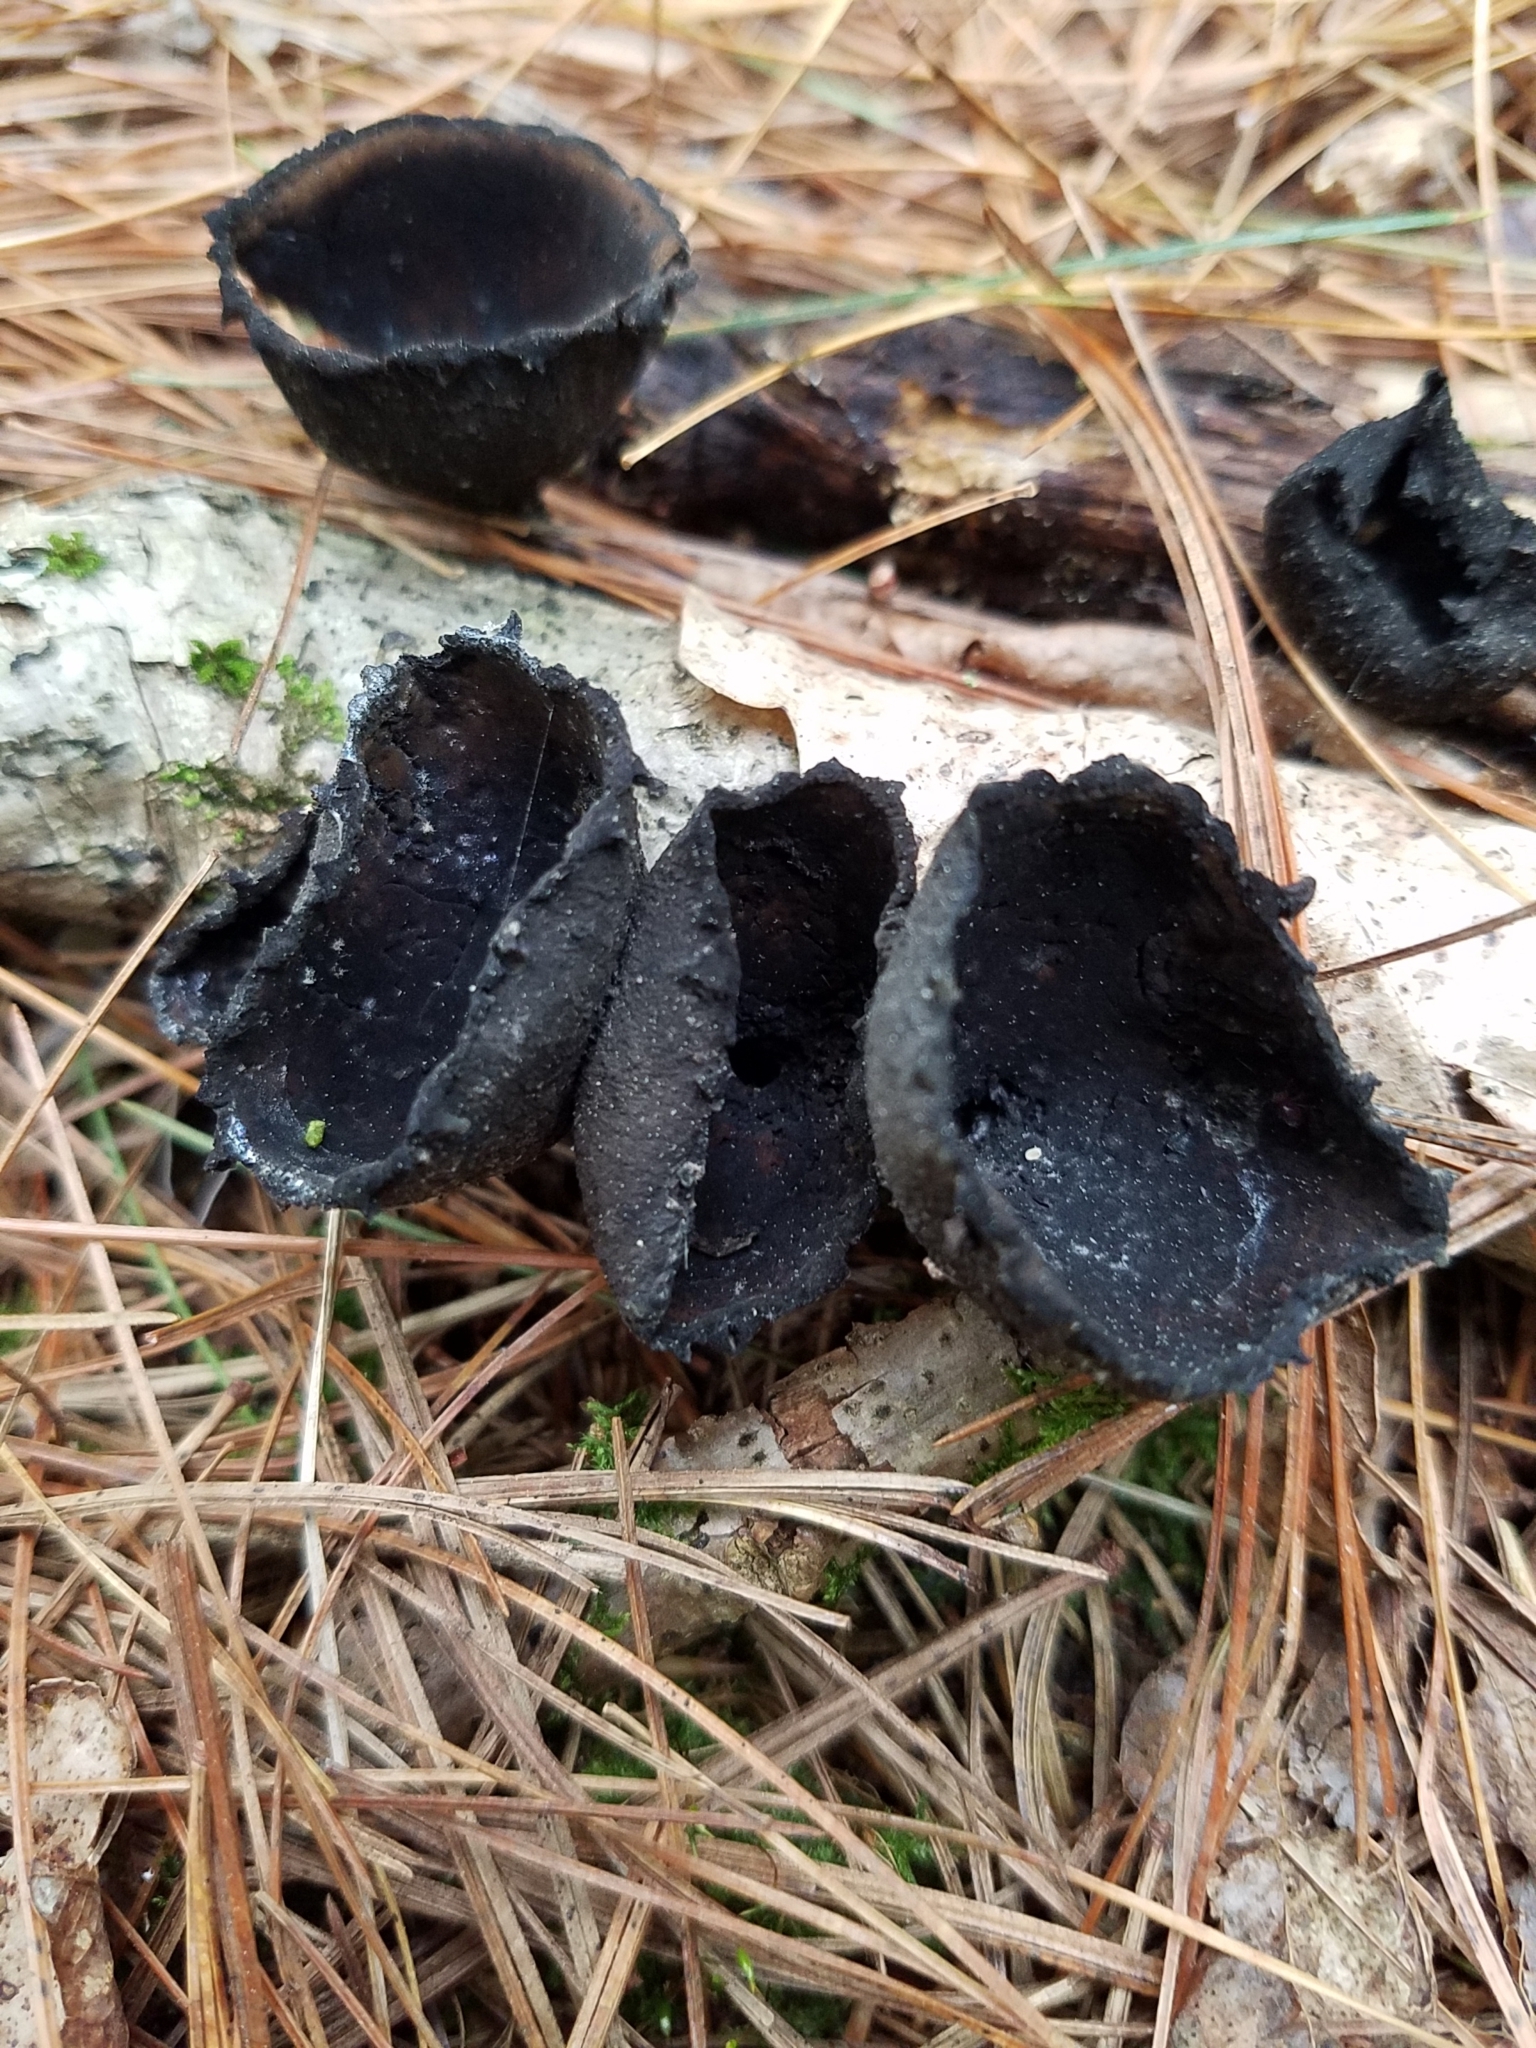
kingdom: Fungi
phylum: Ascomycota
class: Pezizomycetes
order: Pezizales
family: Sarcosomataceae
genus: Urnula
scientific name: Urnula craterium
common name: Devil's urn
